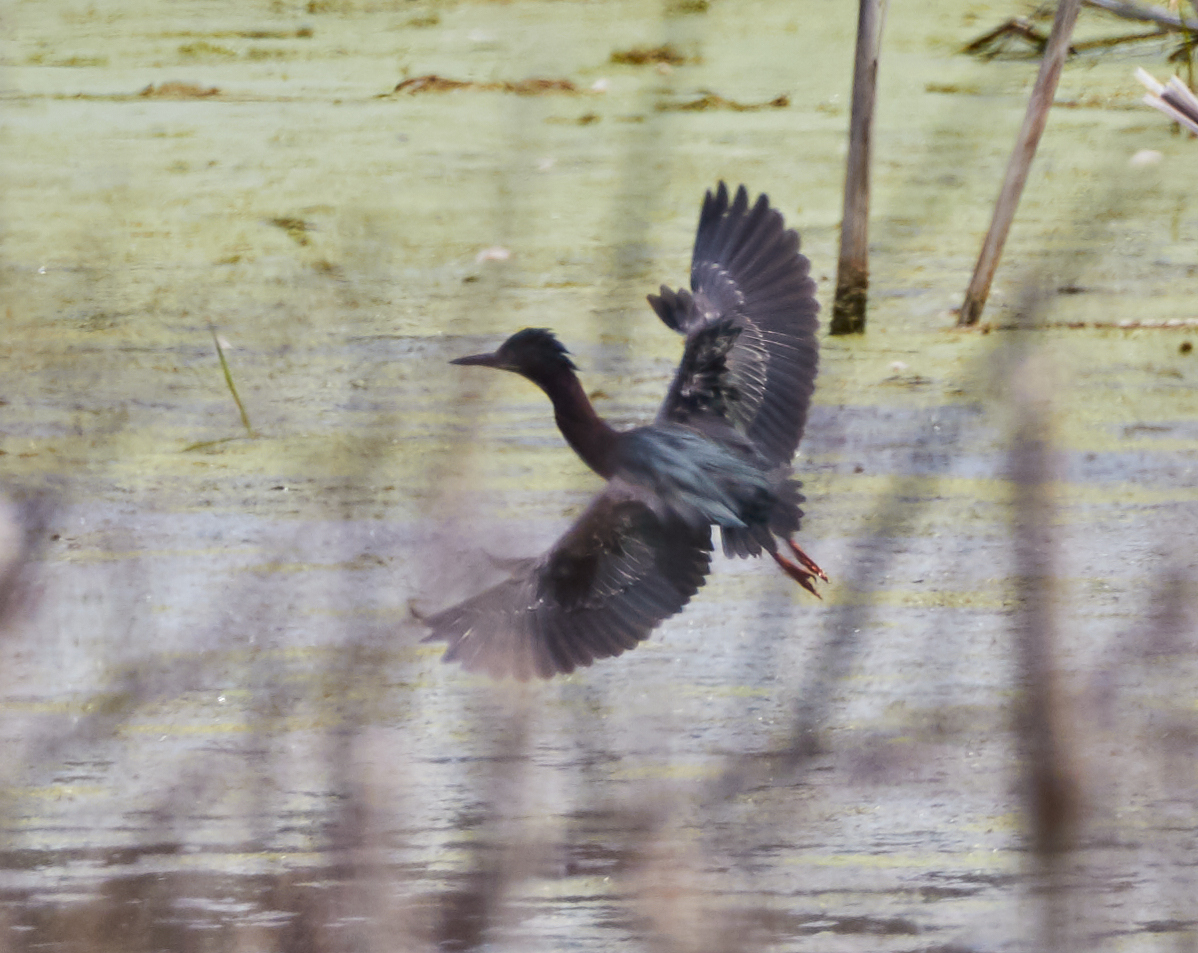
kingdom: Animalia
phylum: Chordata
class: Aves
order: Pelecaniformes
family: Ardeidae
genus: Butorides
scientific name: Butorides virescens
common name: Green heron
